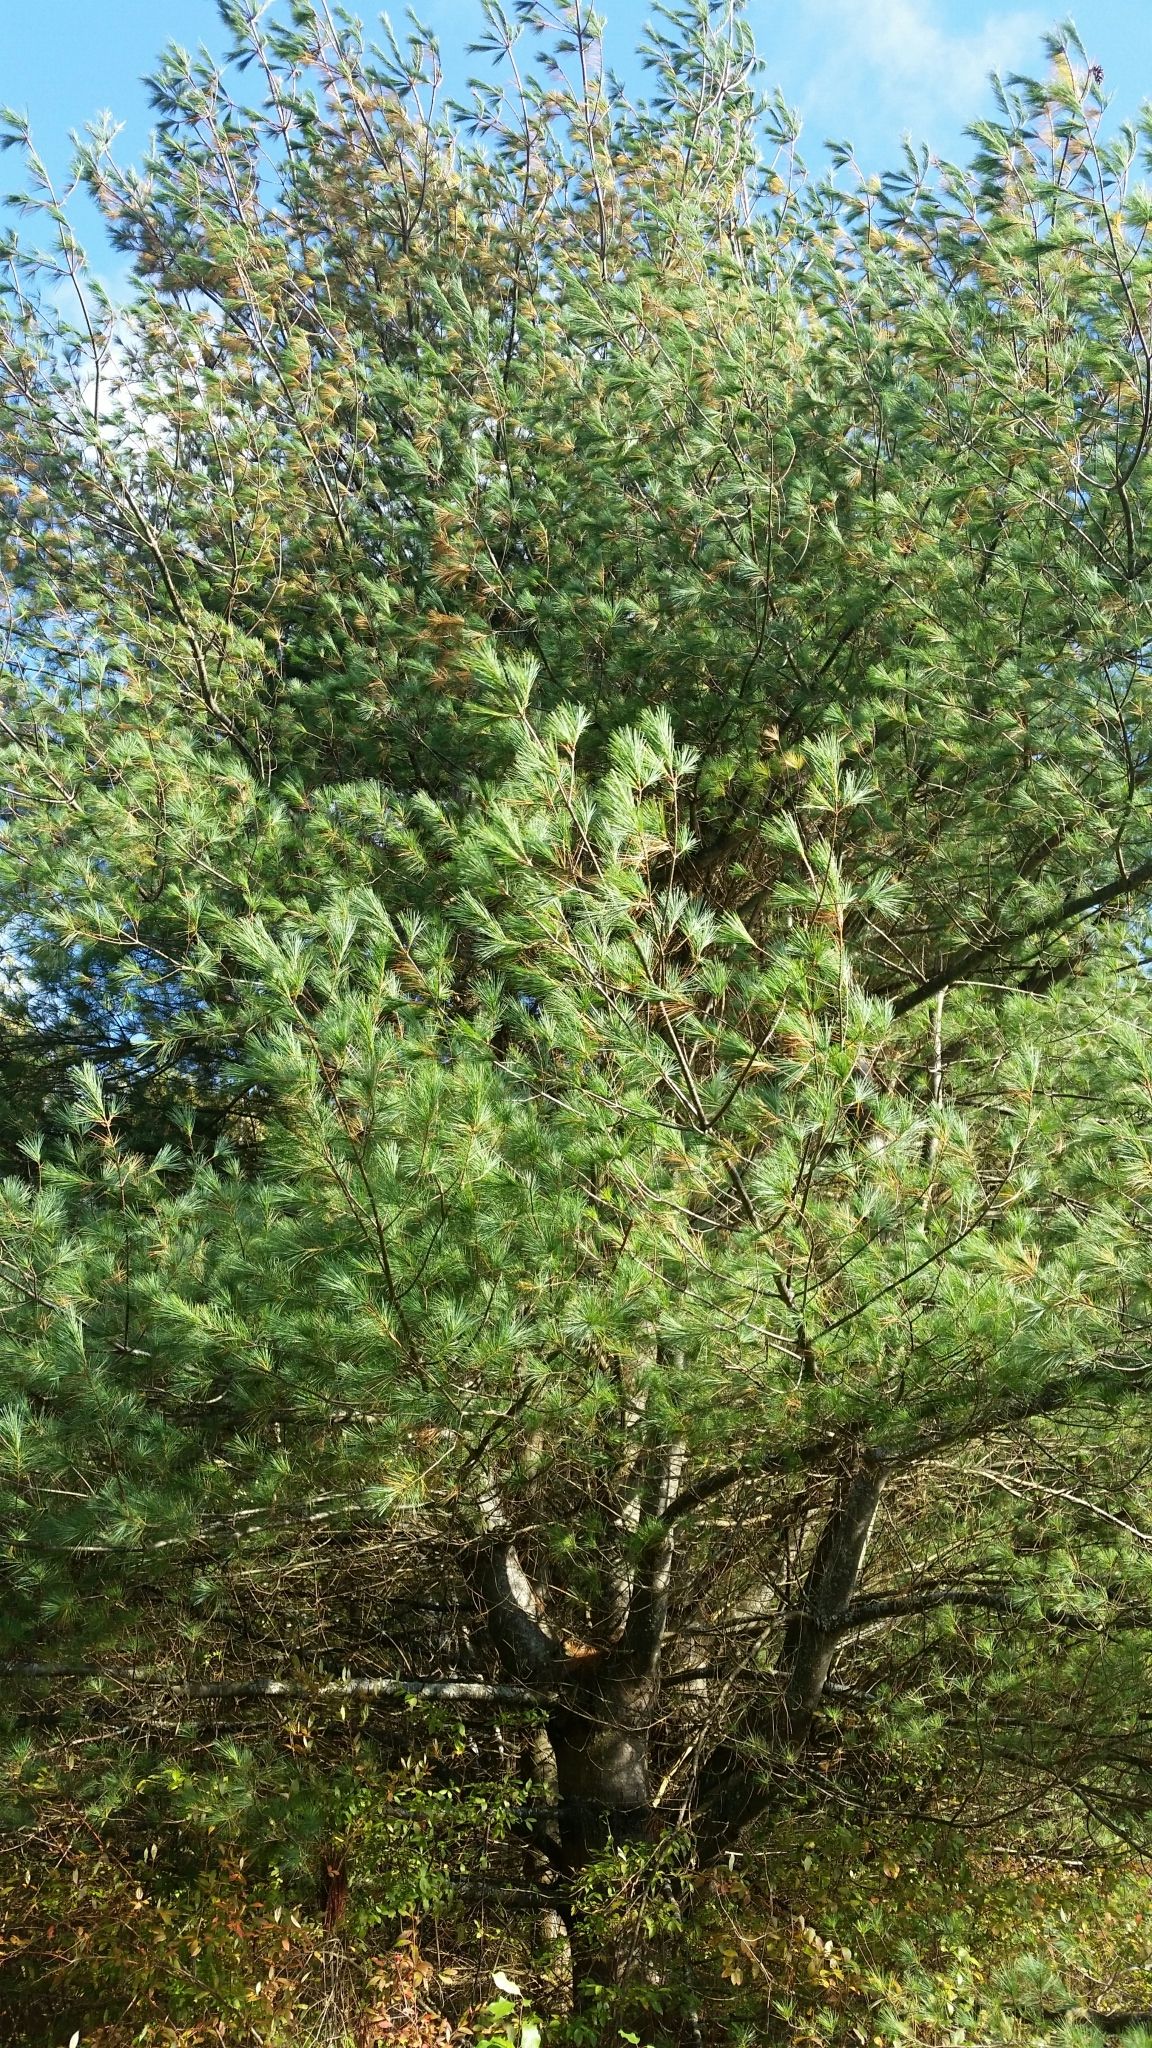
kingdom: Plantae
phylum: Tracheophyta
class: Pinopsida
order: Pinales
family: Pinaceae
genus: Pinus
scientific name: Pinus strobus
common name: Weymouth pine
